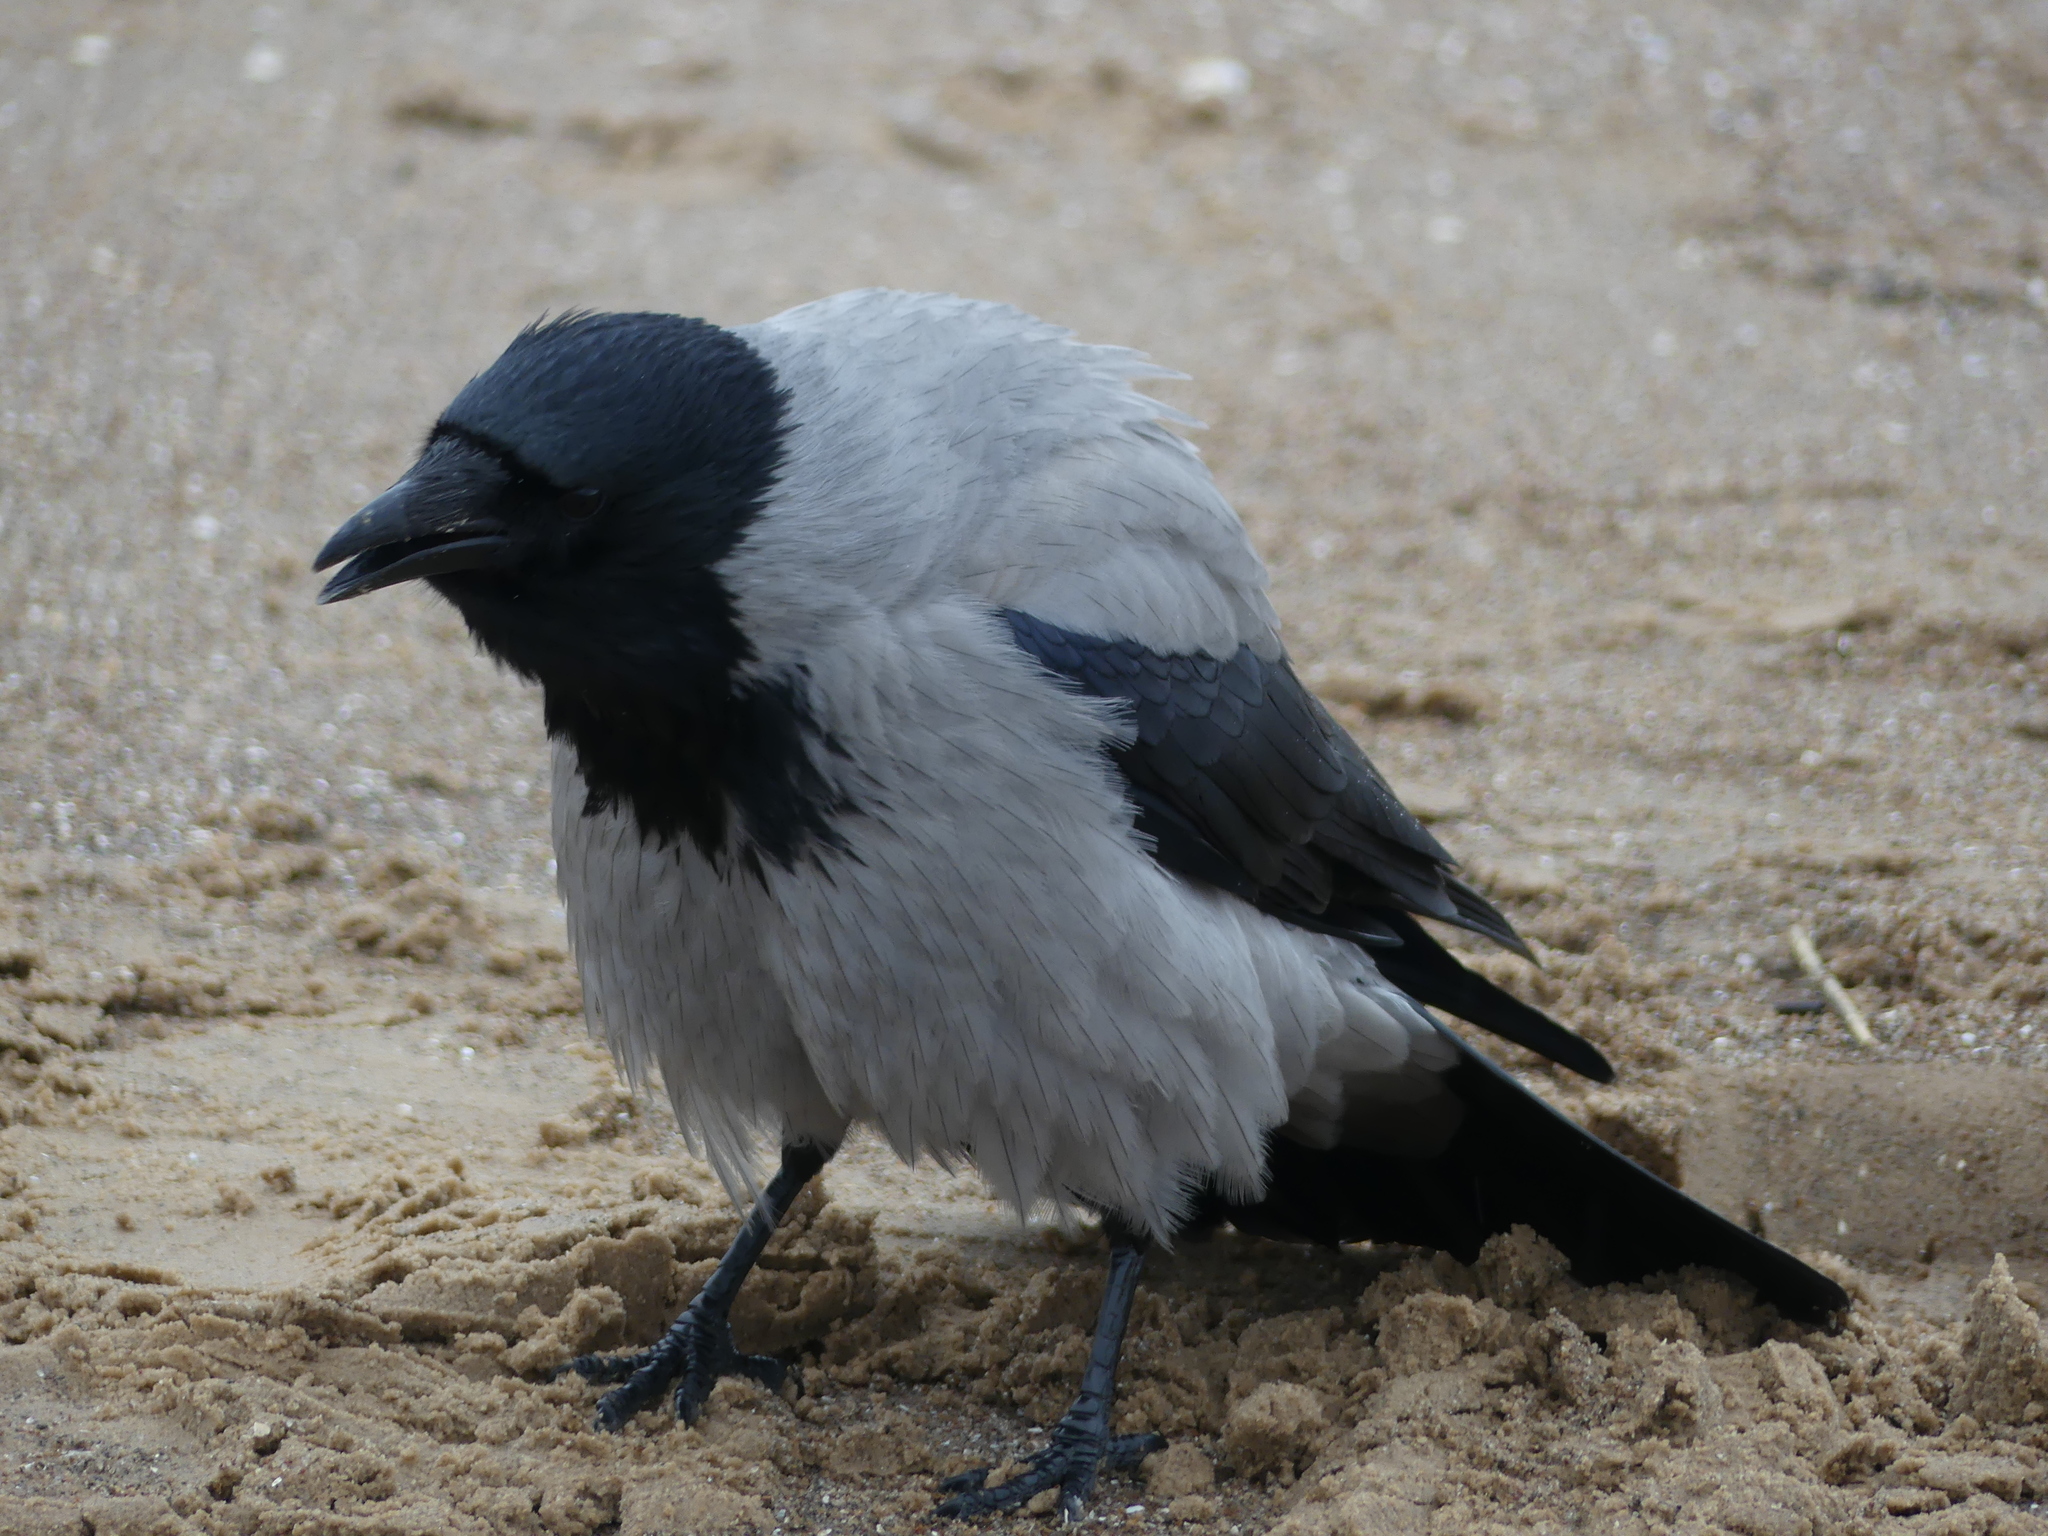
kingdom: Animalia
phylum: Chordata
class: Aves
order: Passeriformes
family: Corvidae
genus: Corvus
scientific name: Corvus cornix
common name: Hooded crow
